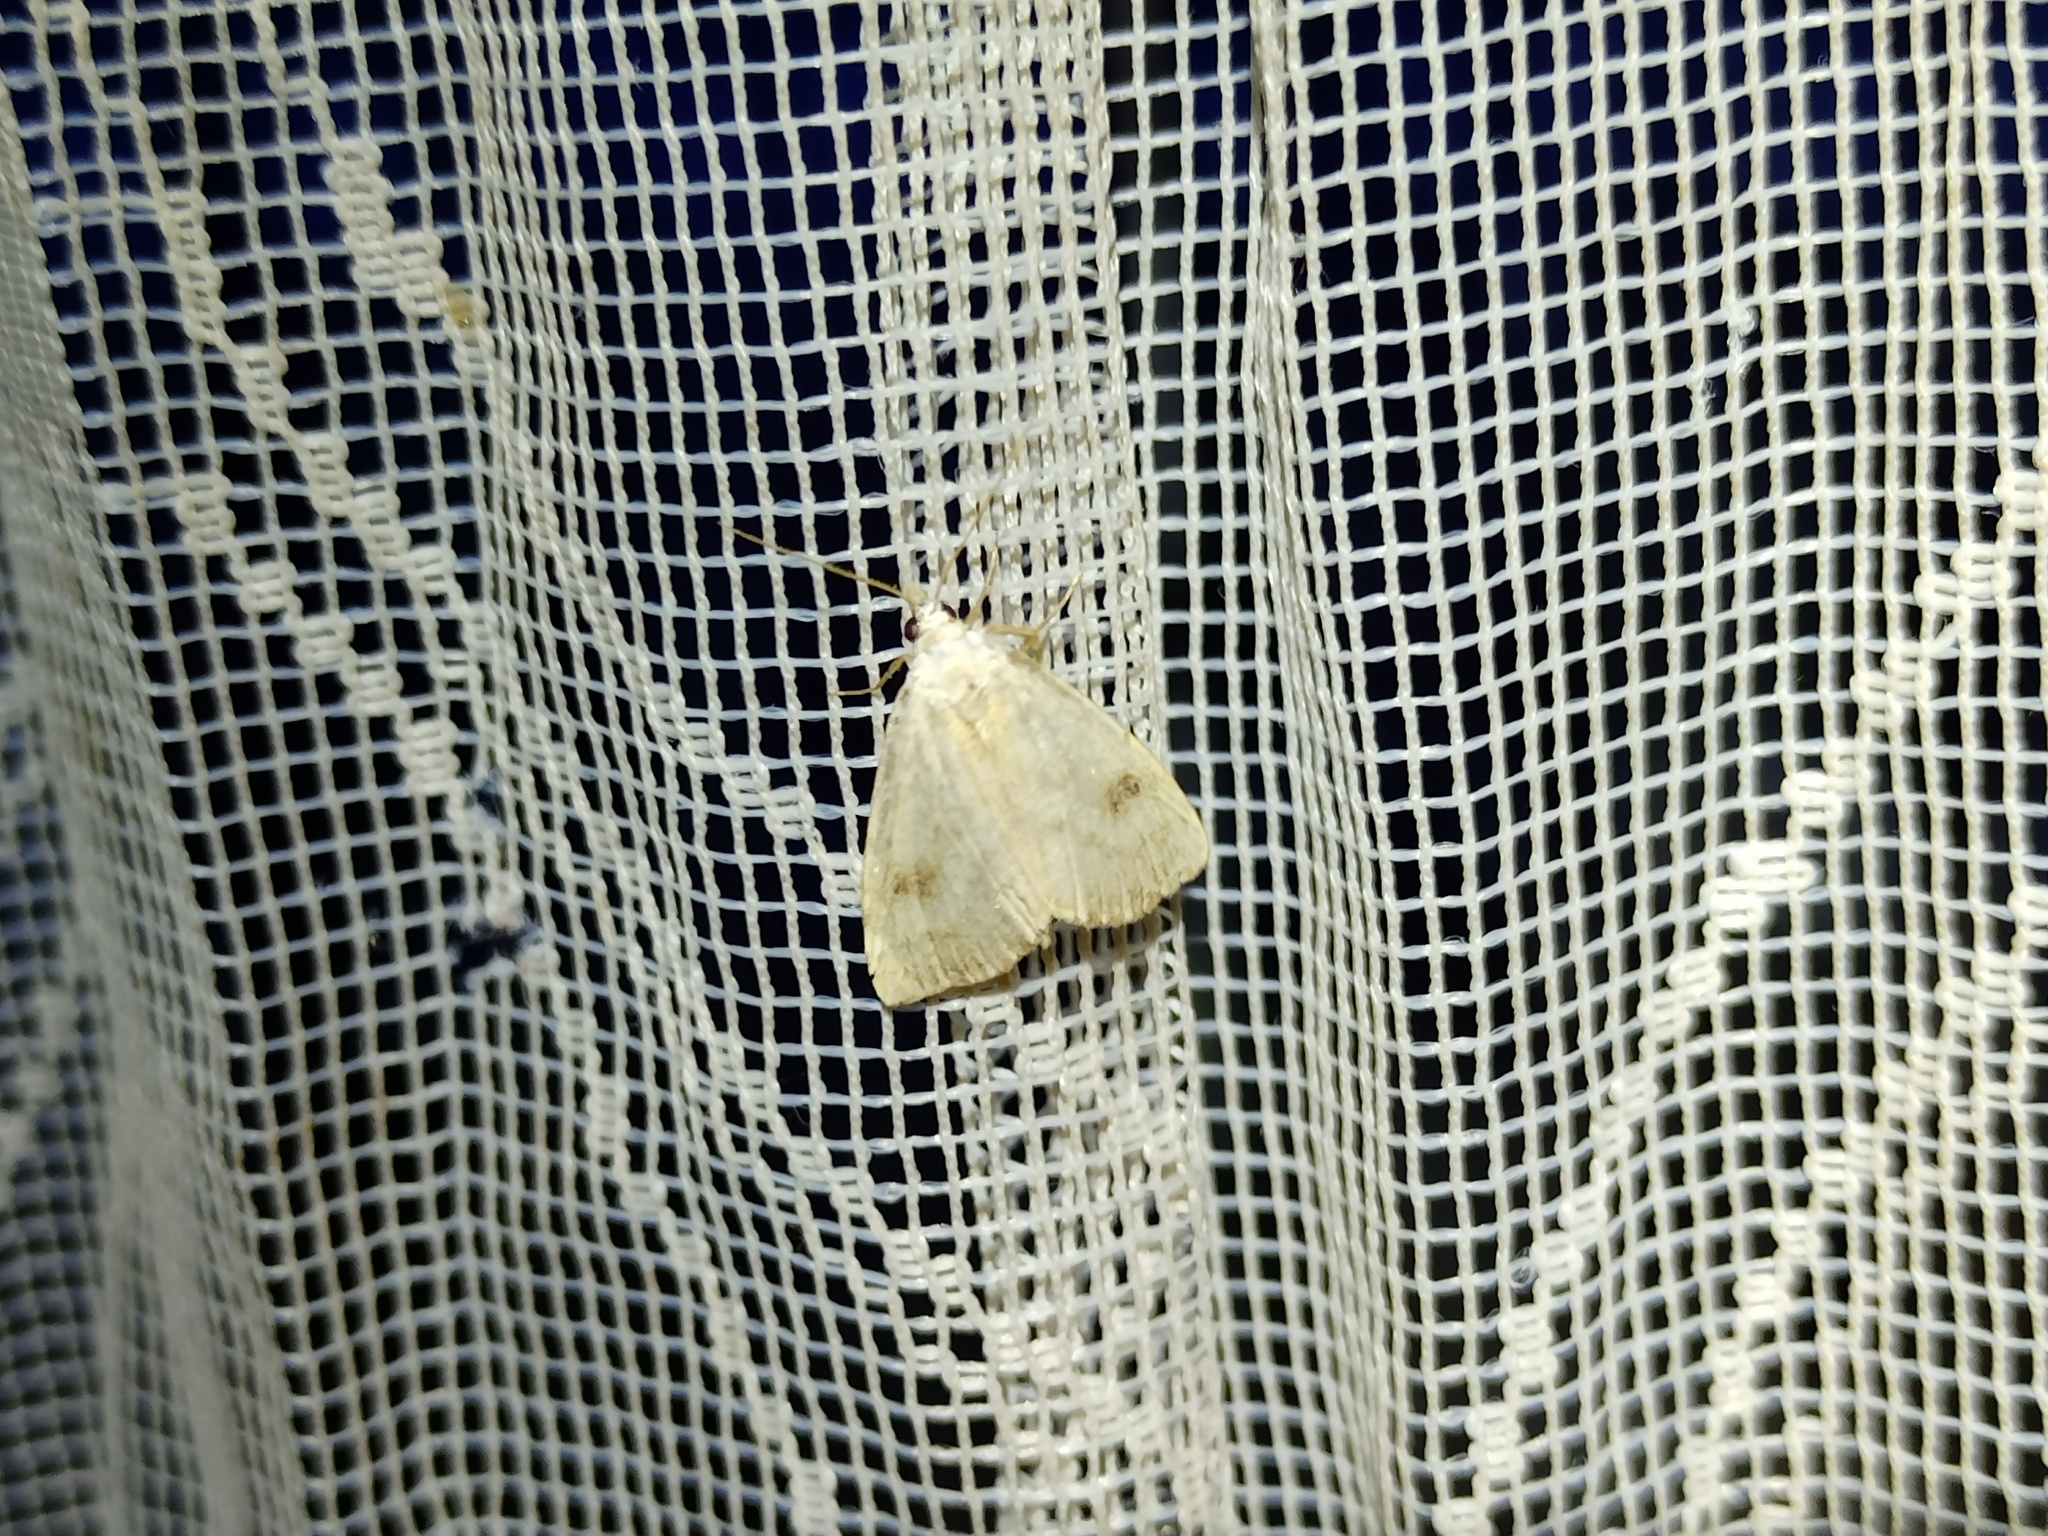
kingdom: Animalia
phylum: Arthropoda
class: Insecta
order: Lepidoptera
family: Erebidae
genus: Rivula
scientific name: Rivula sericealis
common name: Straw dot
